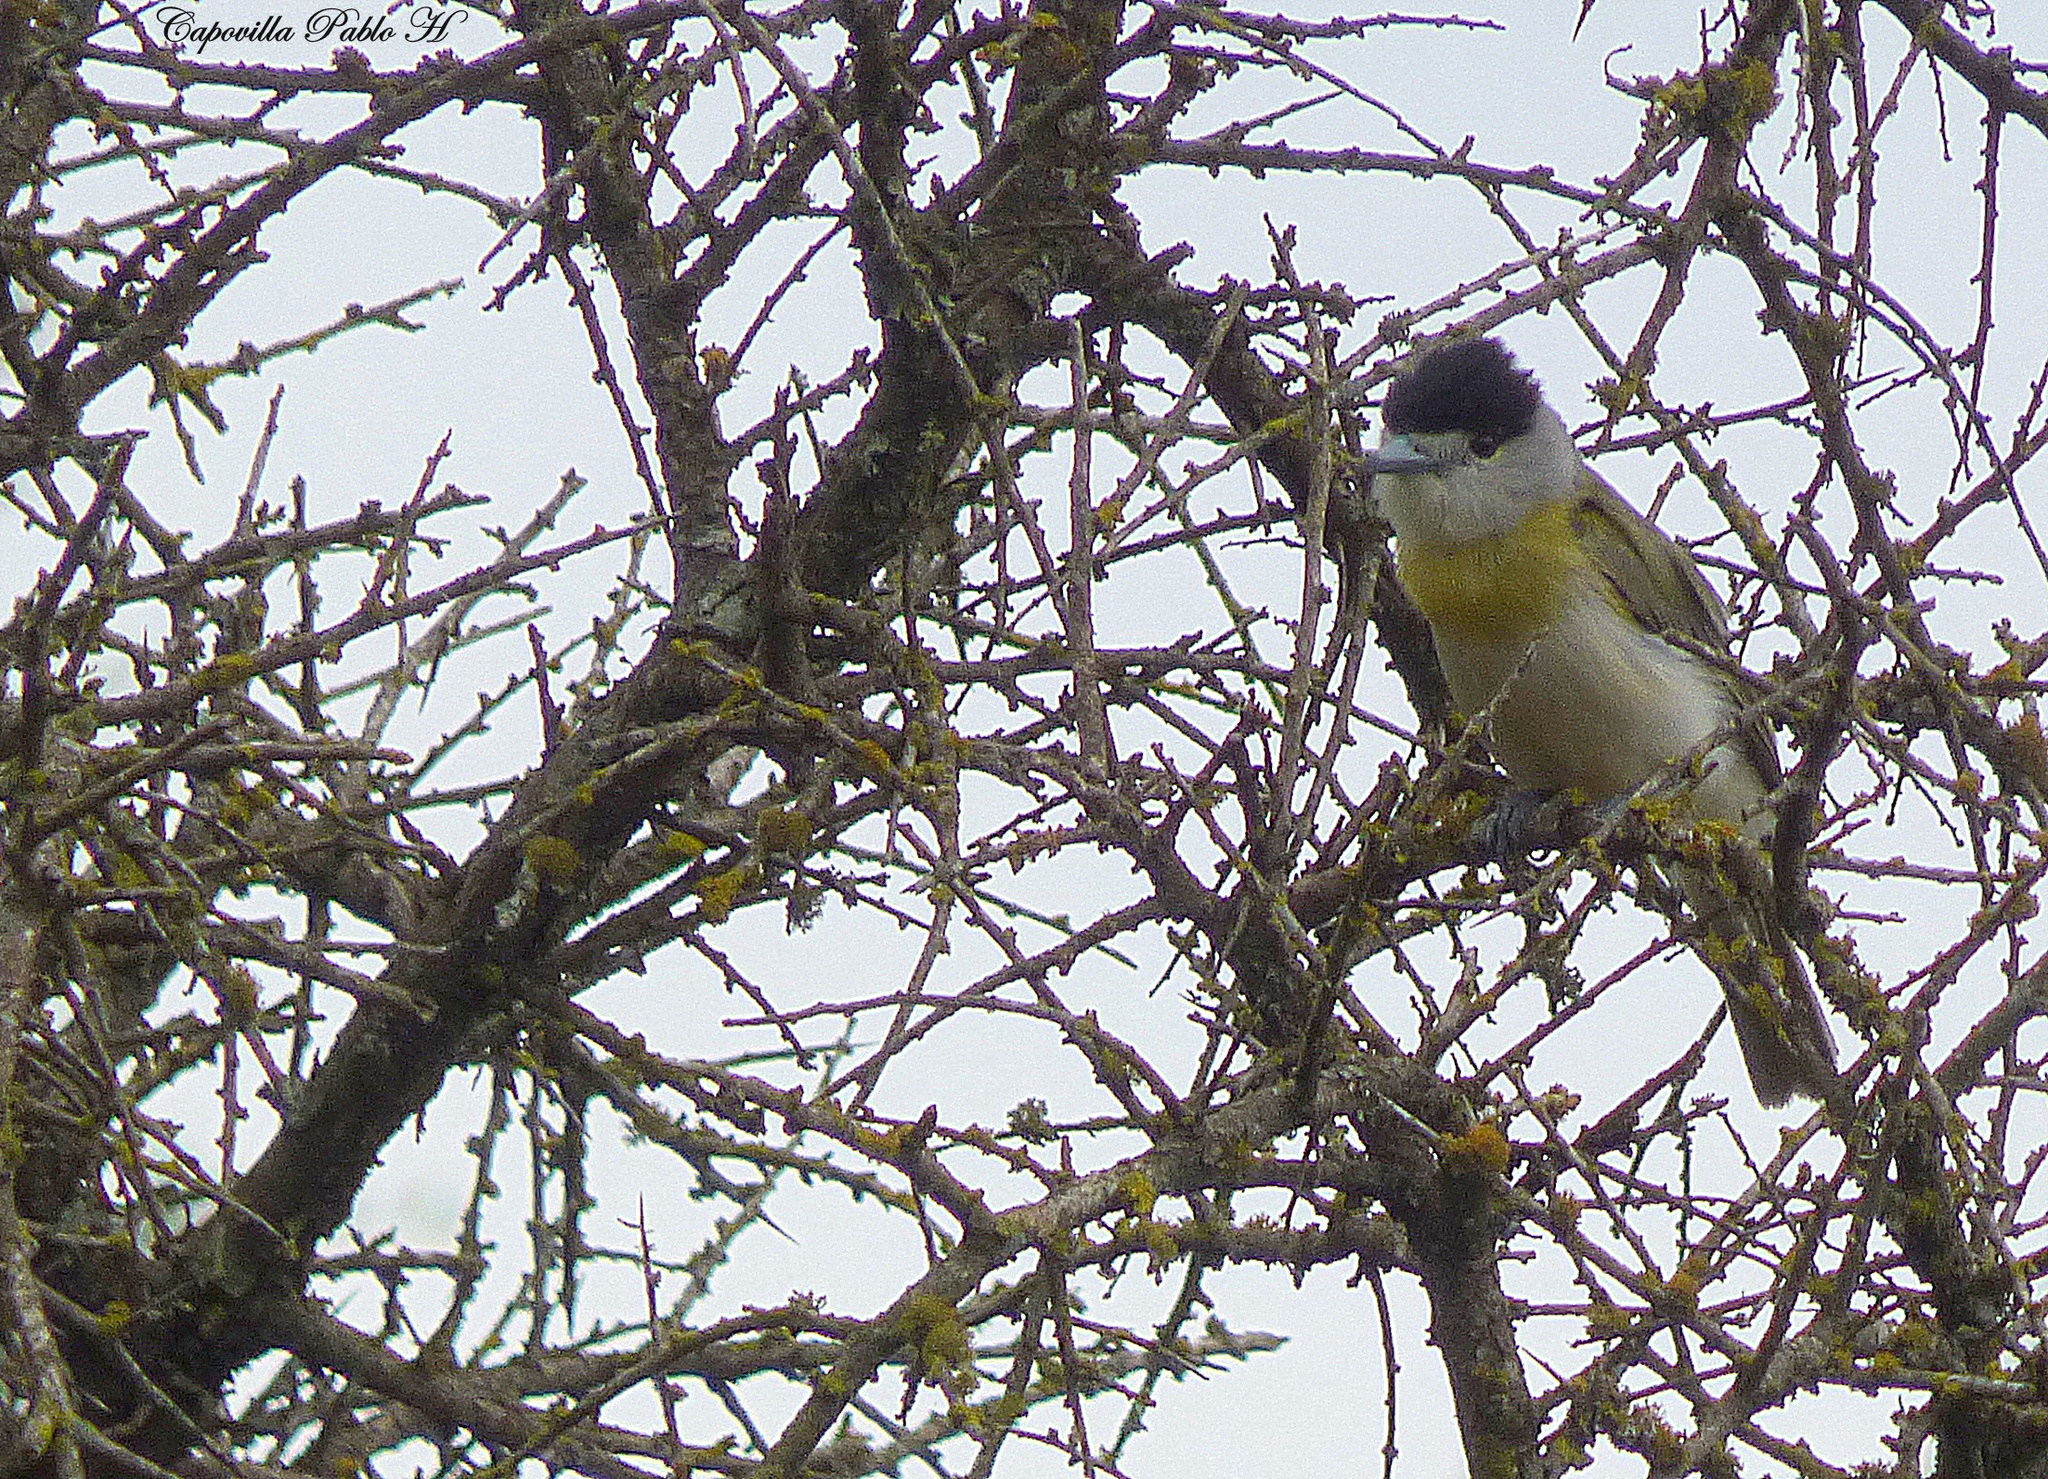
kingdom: Animalia
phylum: Chordata
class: Aves
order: Passeriformes
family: Cotingidae
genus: Pachyramphus
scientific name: Pachyramphus viridis
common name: Green-backed becard
